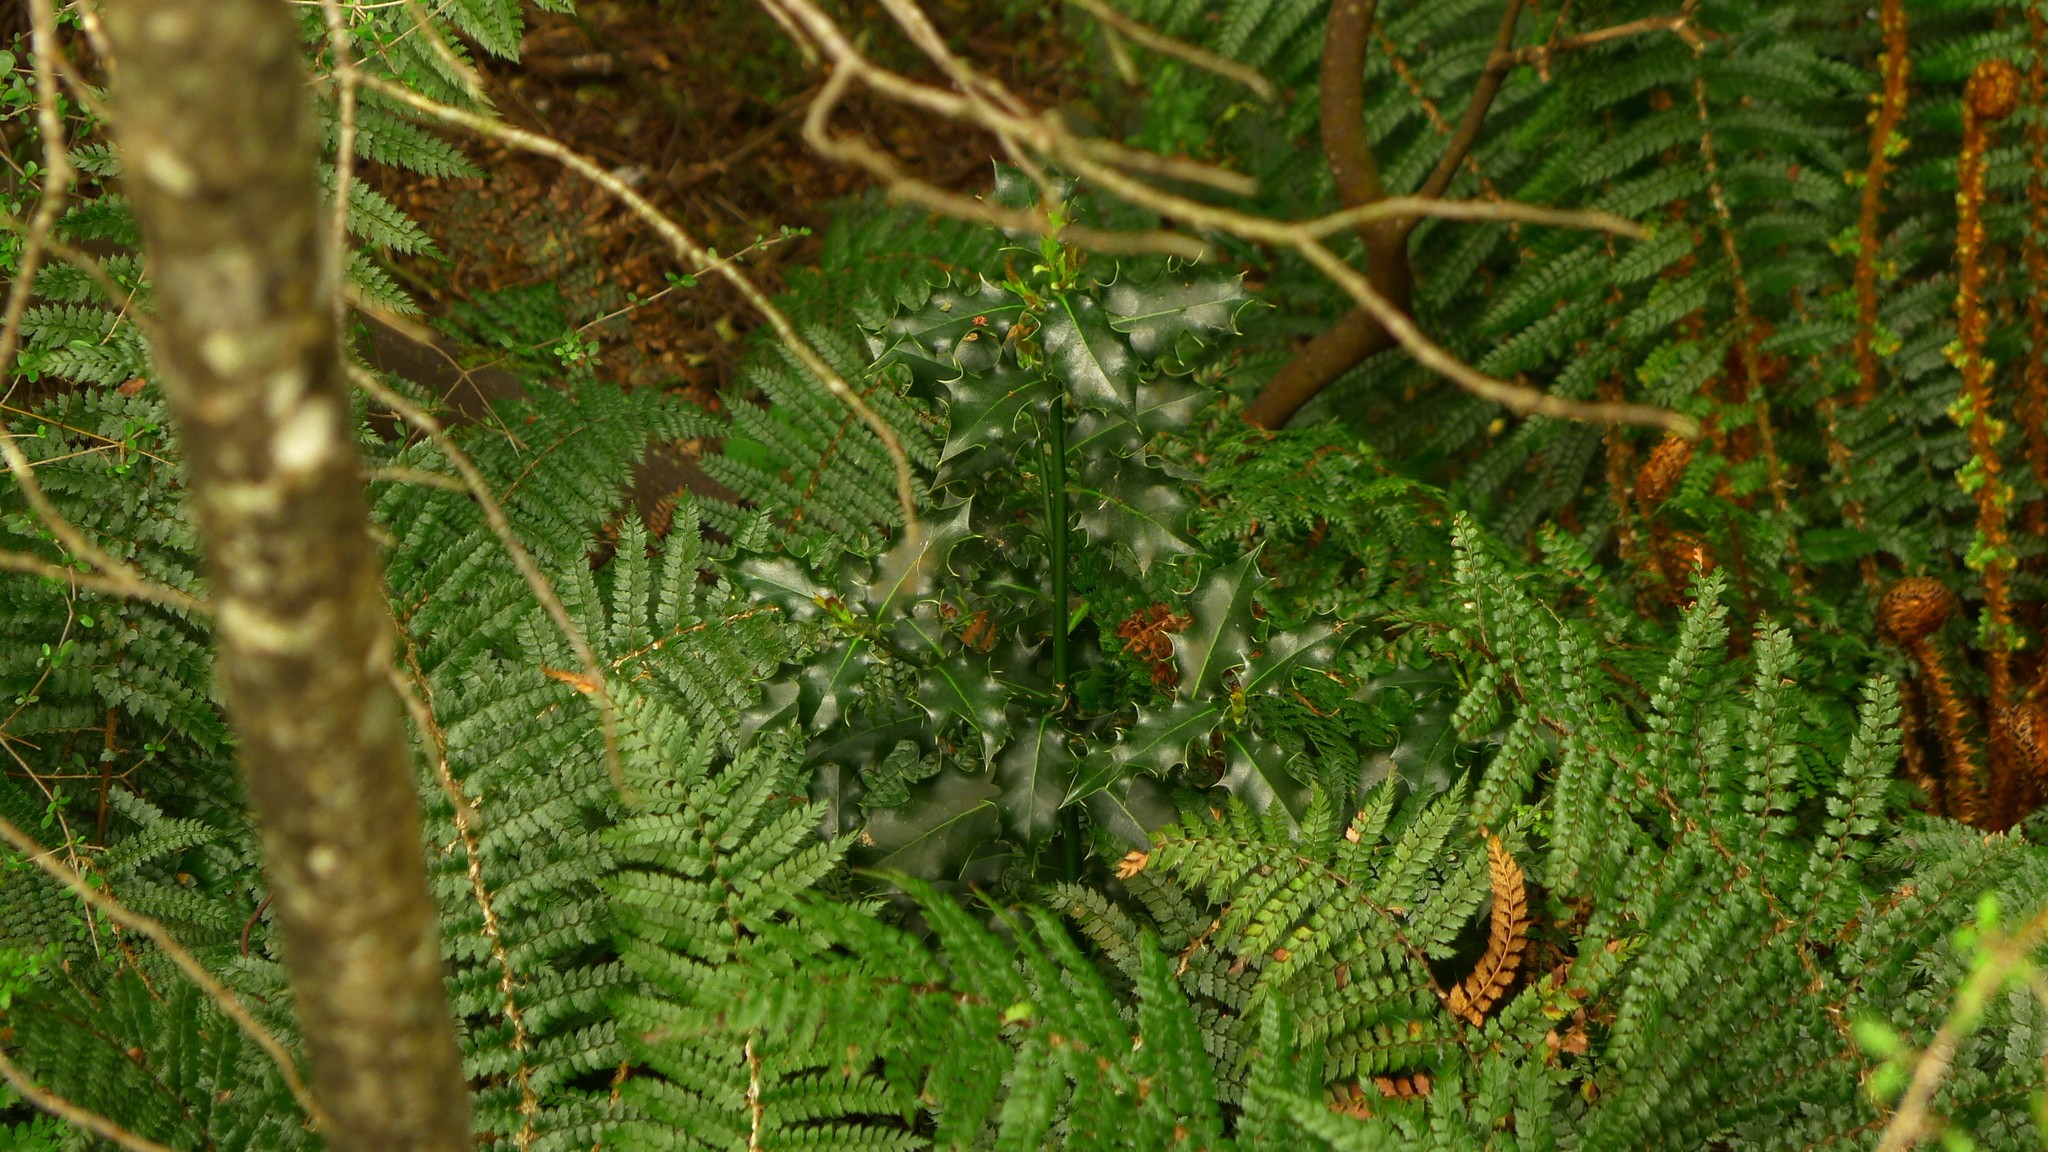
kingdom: Plantae
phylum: Tracheophyta
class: Magnoliopsida
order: Aquifoliales
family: Aquifoliaceae
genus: Ilex
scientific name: Ilex aquifolium
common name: English holly
